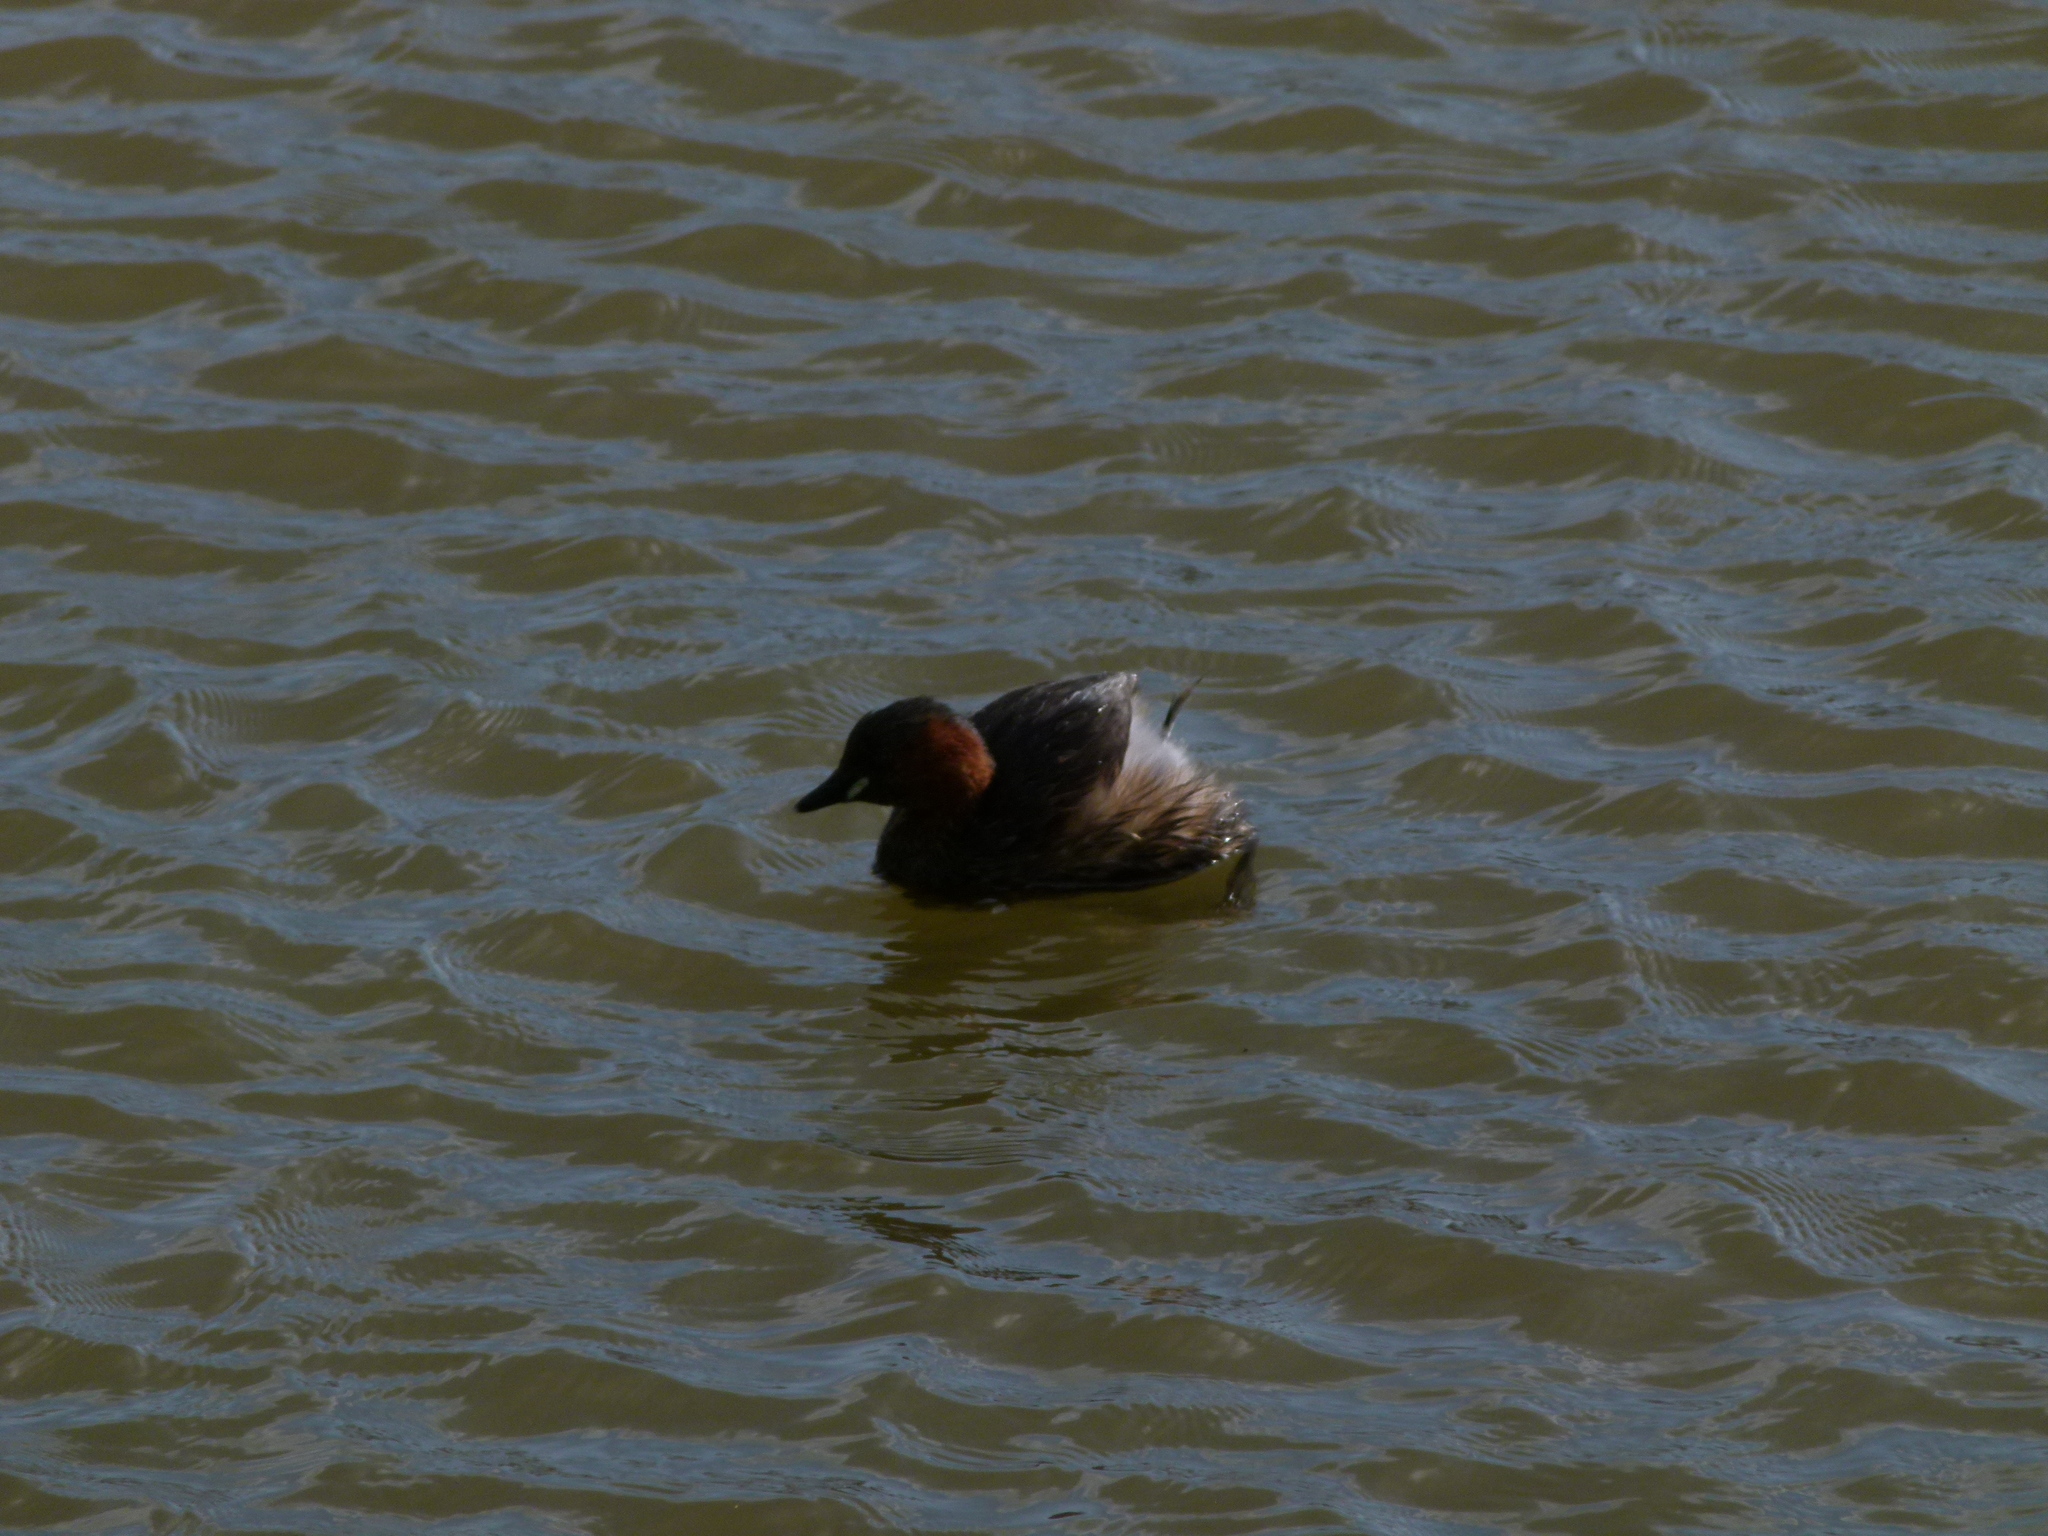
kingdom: Animalia
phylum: Chordata
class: Aves
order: Podicipediformes
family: Podicipedidae
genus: Tachybaptus
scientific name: Tachybaptus ruficollis
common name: Little grebe
